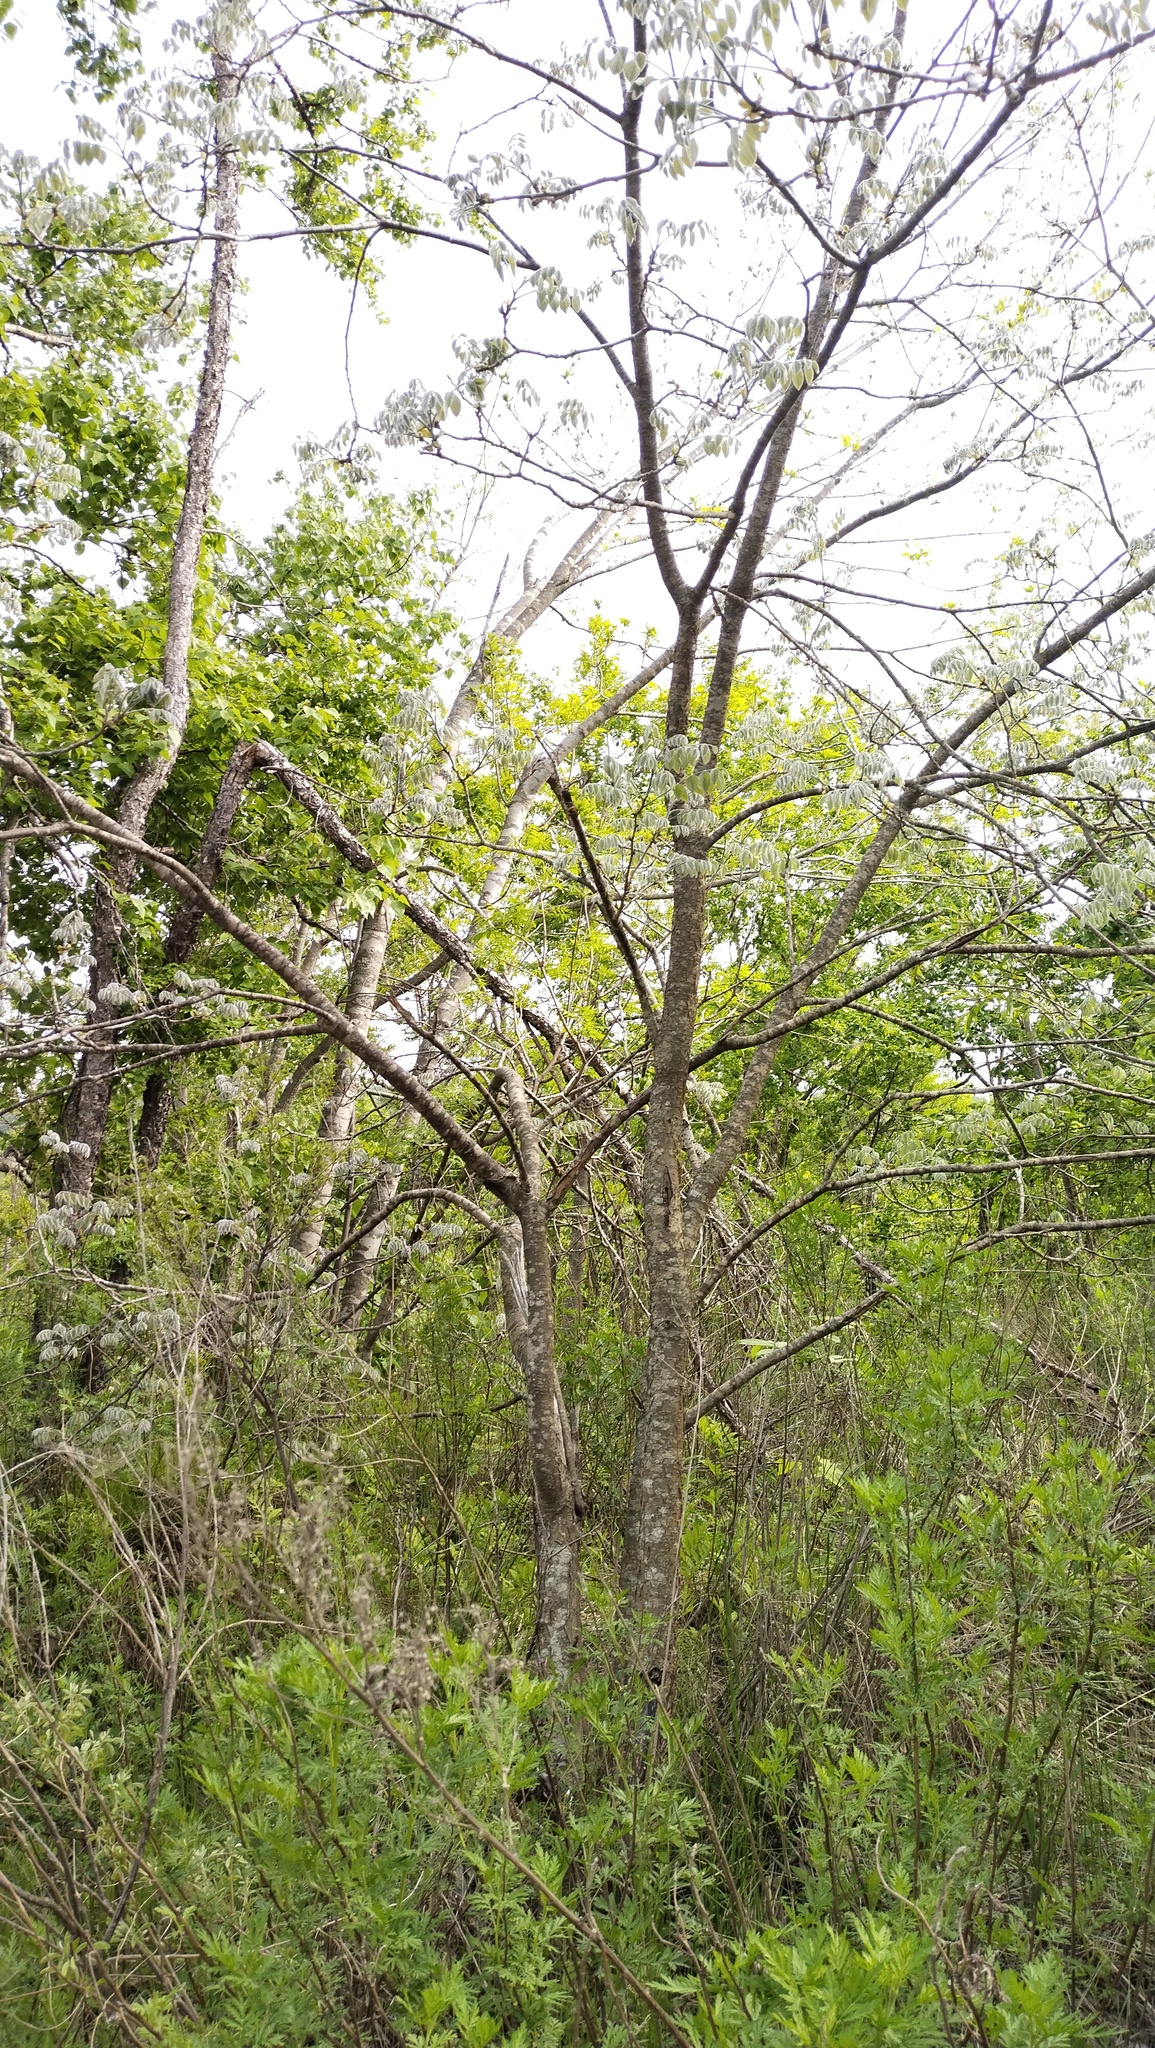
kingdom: Plantae
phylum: Tracheophyta
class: Magnoliopsida
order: Fabales
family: Fabaceae
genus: Maackia
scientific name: Maackia amurensis
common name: Amur maackia
